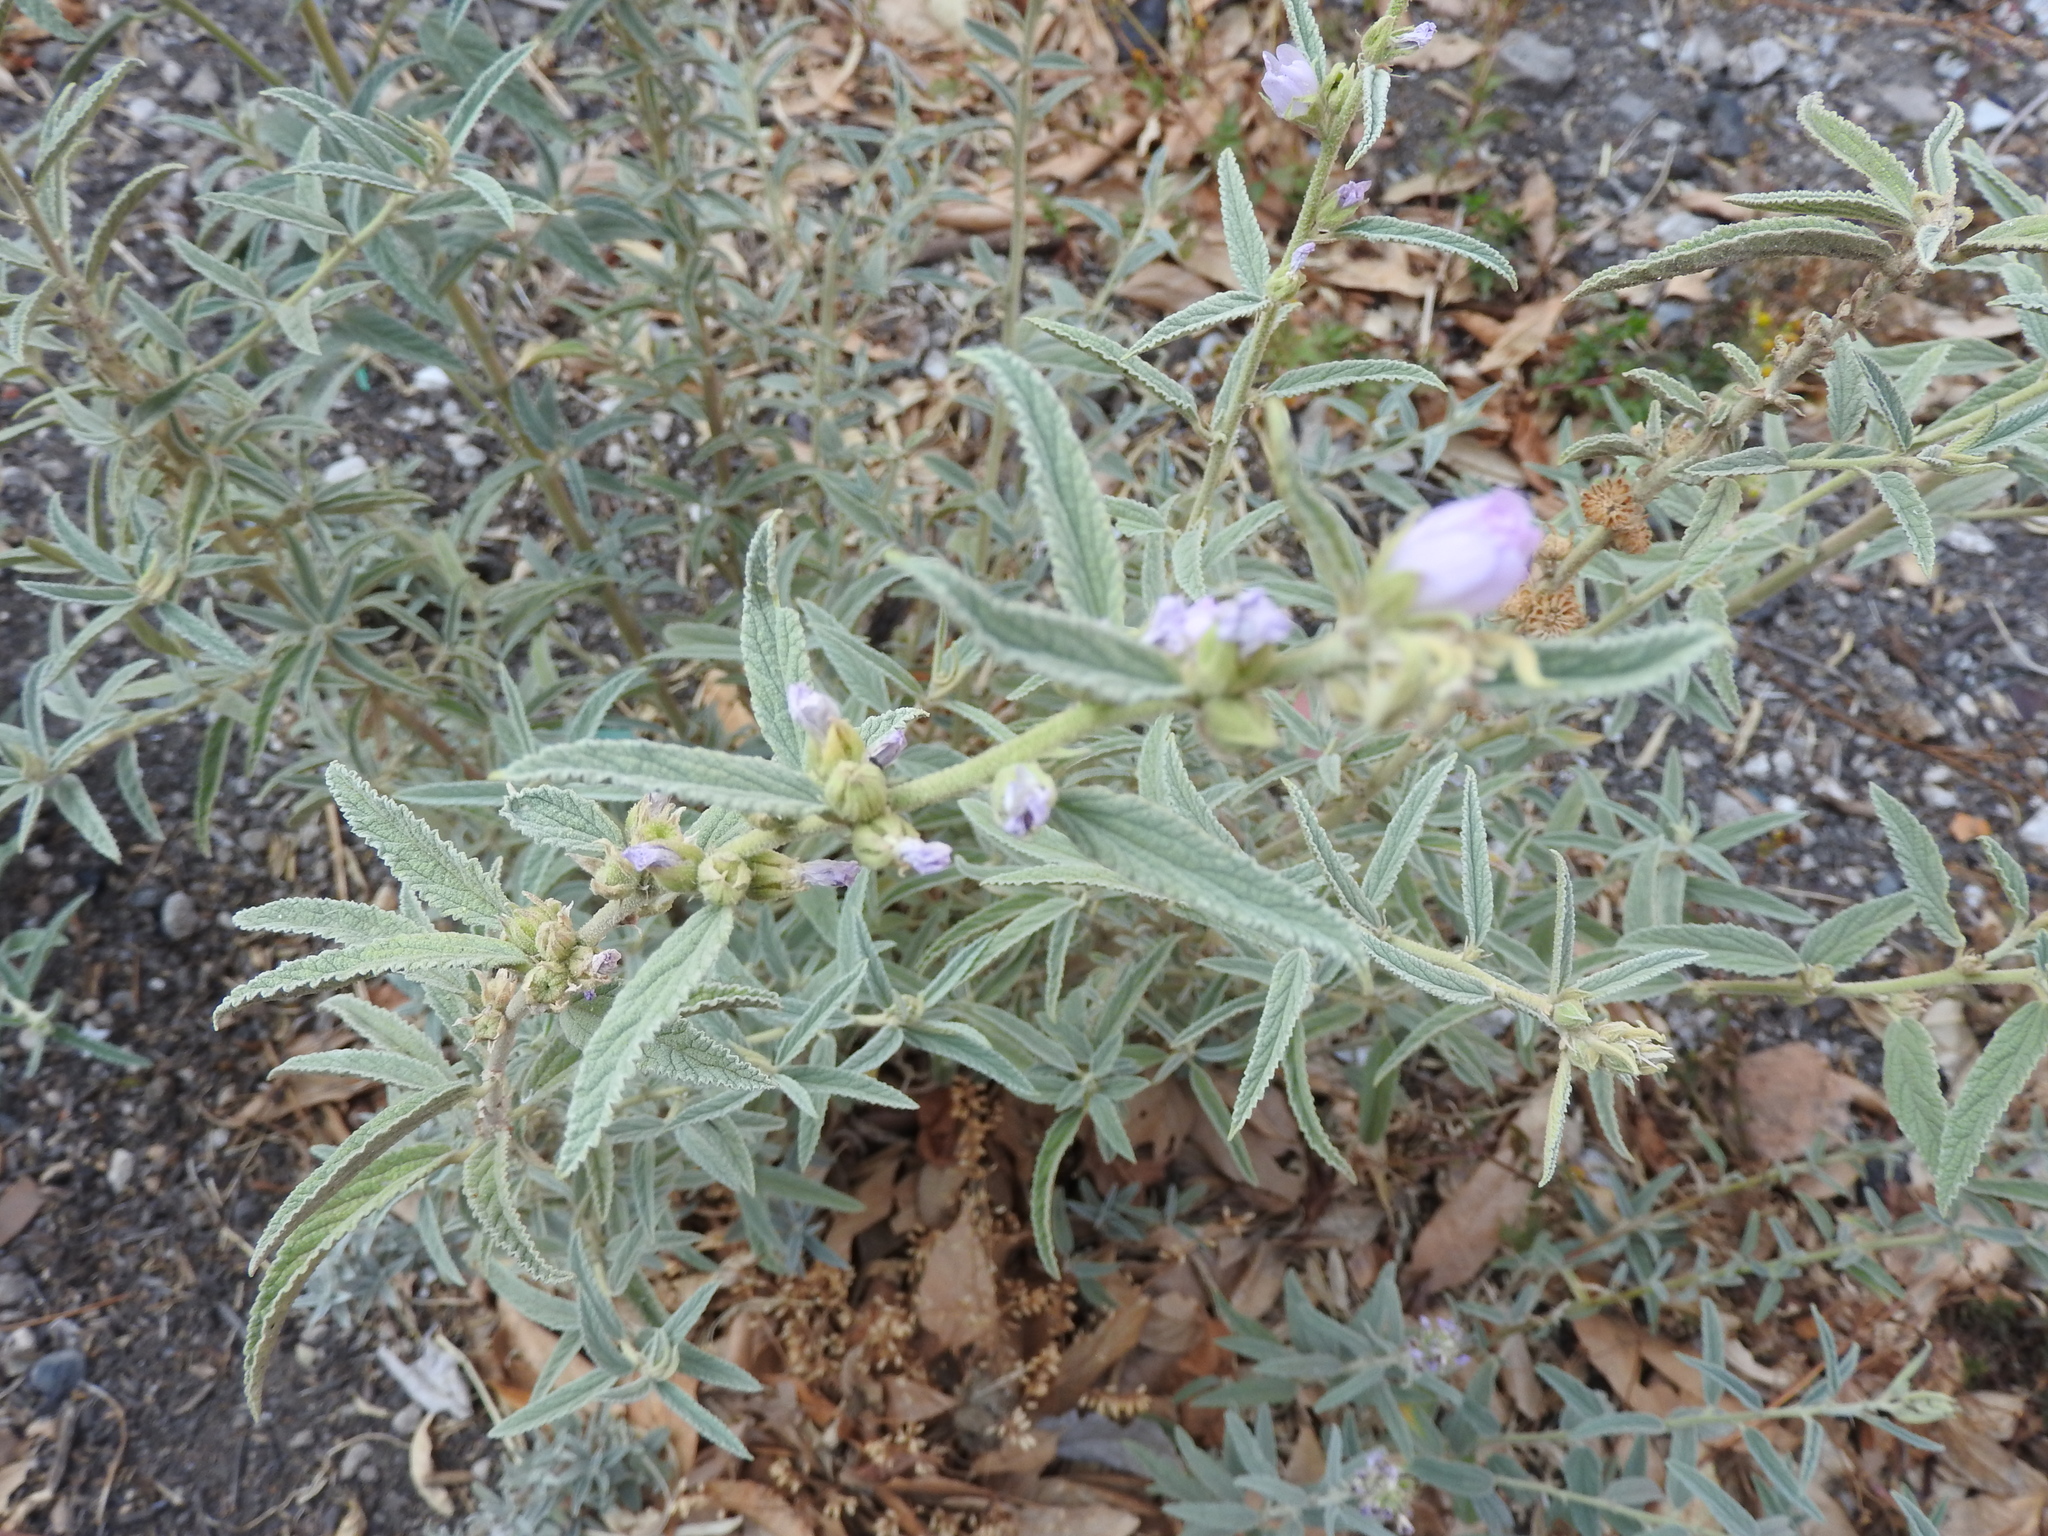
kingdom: Plantae
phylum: Tracheophyta
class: Magnoliopsida
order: Malvales
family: Malvaceae
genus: Sphaeralcea
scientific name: Sphaeralcea angustifolia
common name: Copper globe-mallow
